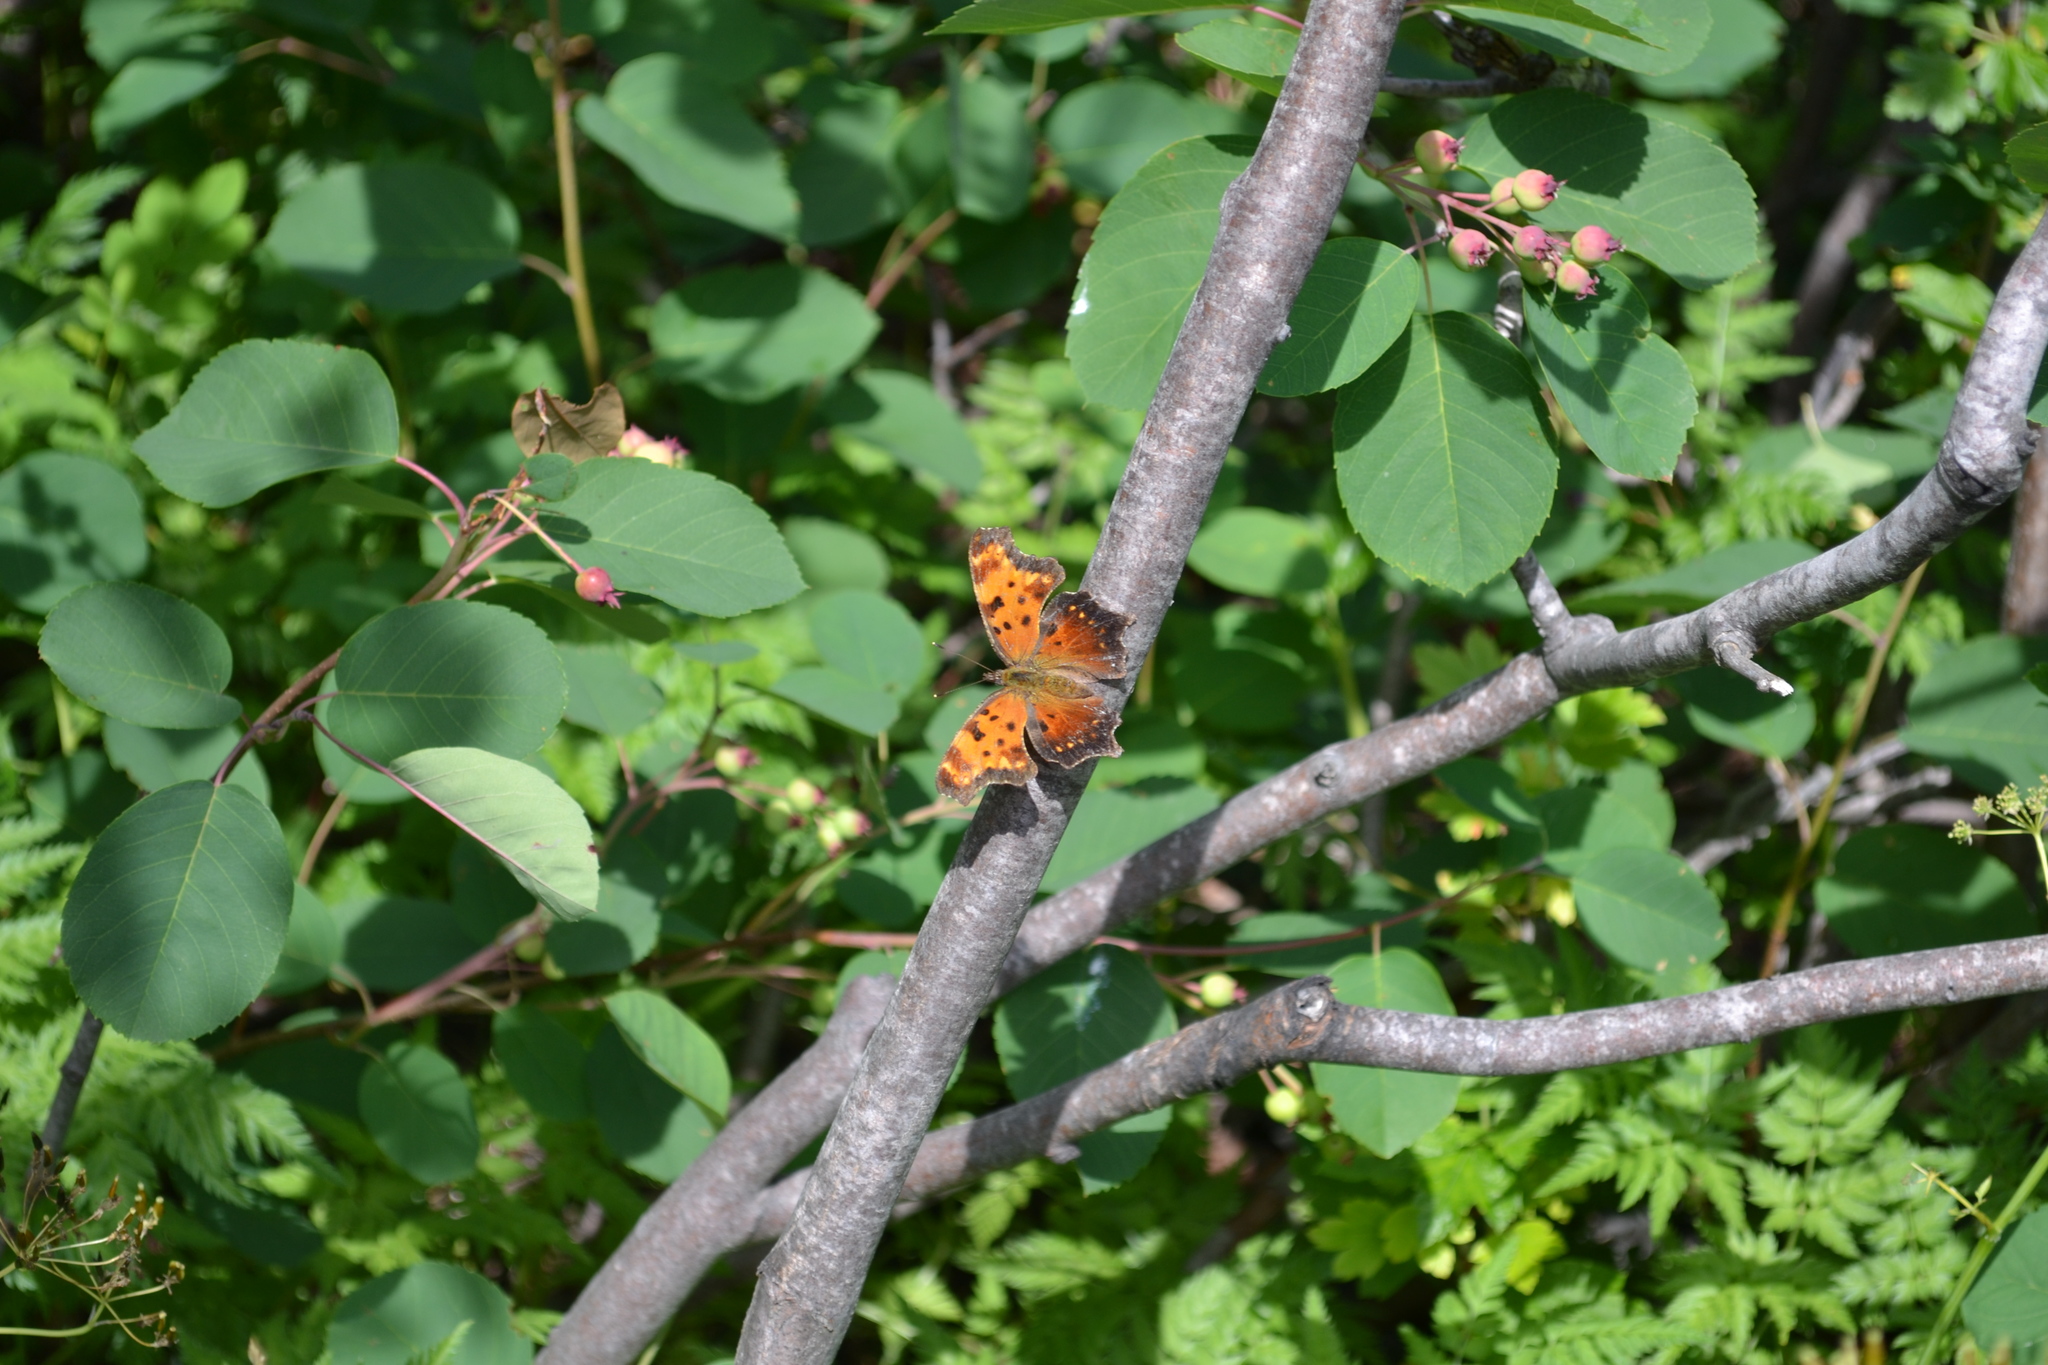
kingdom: Animalia
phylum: Arthropoda
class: Insecta
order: Lepidoptera
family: Nymphalidae
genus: Polygonia
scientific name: Polygonia progne
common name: Gray comma
